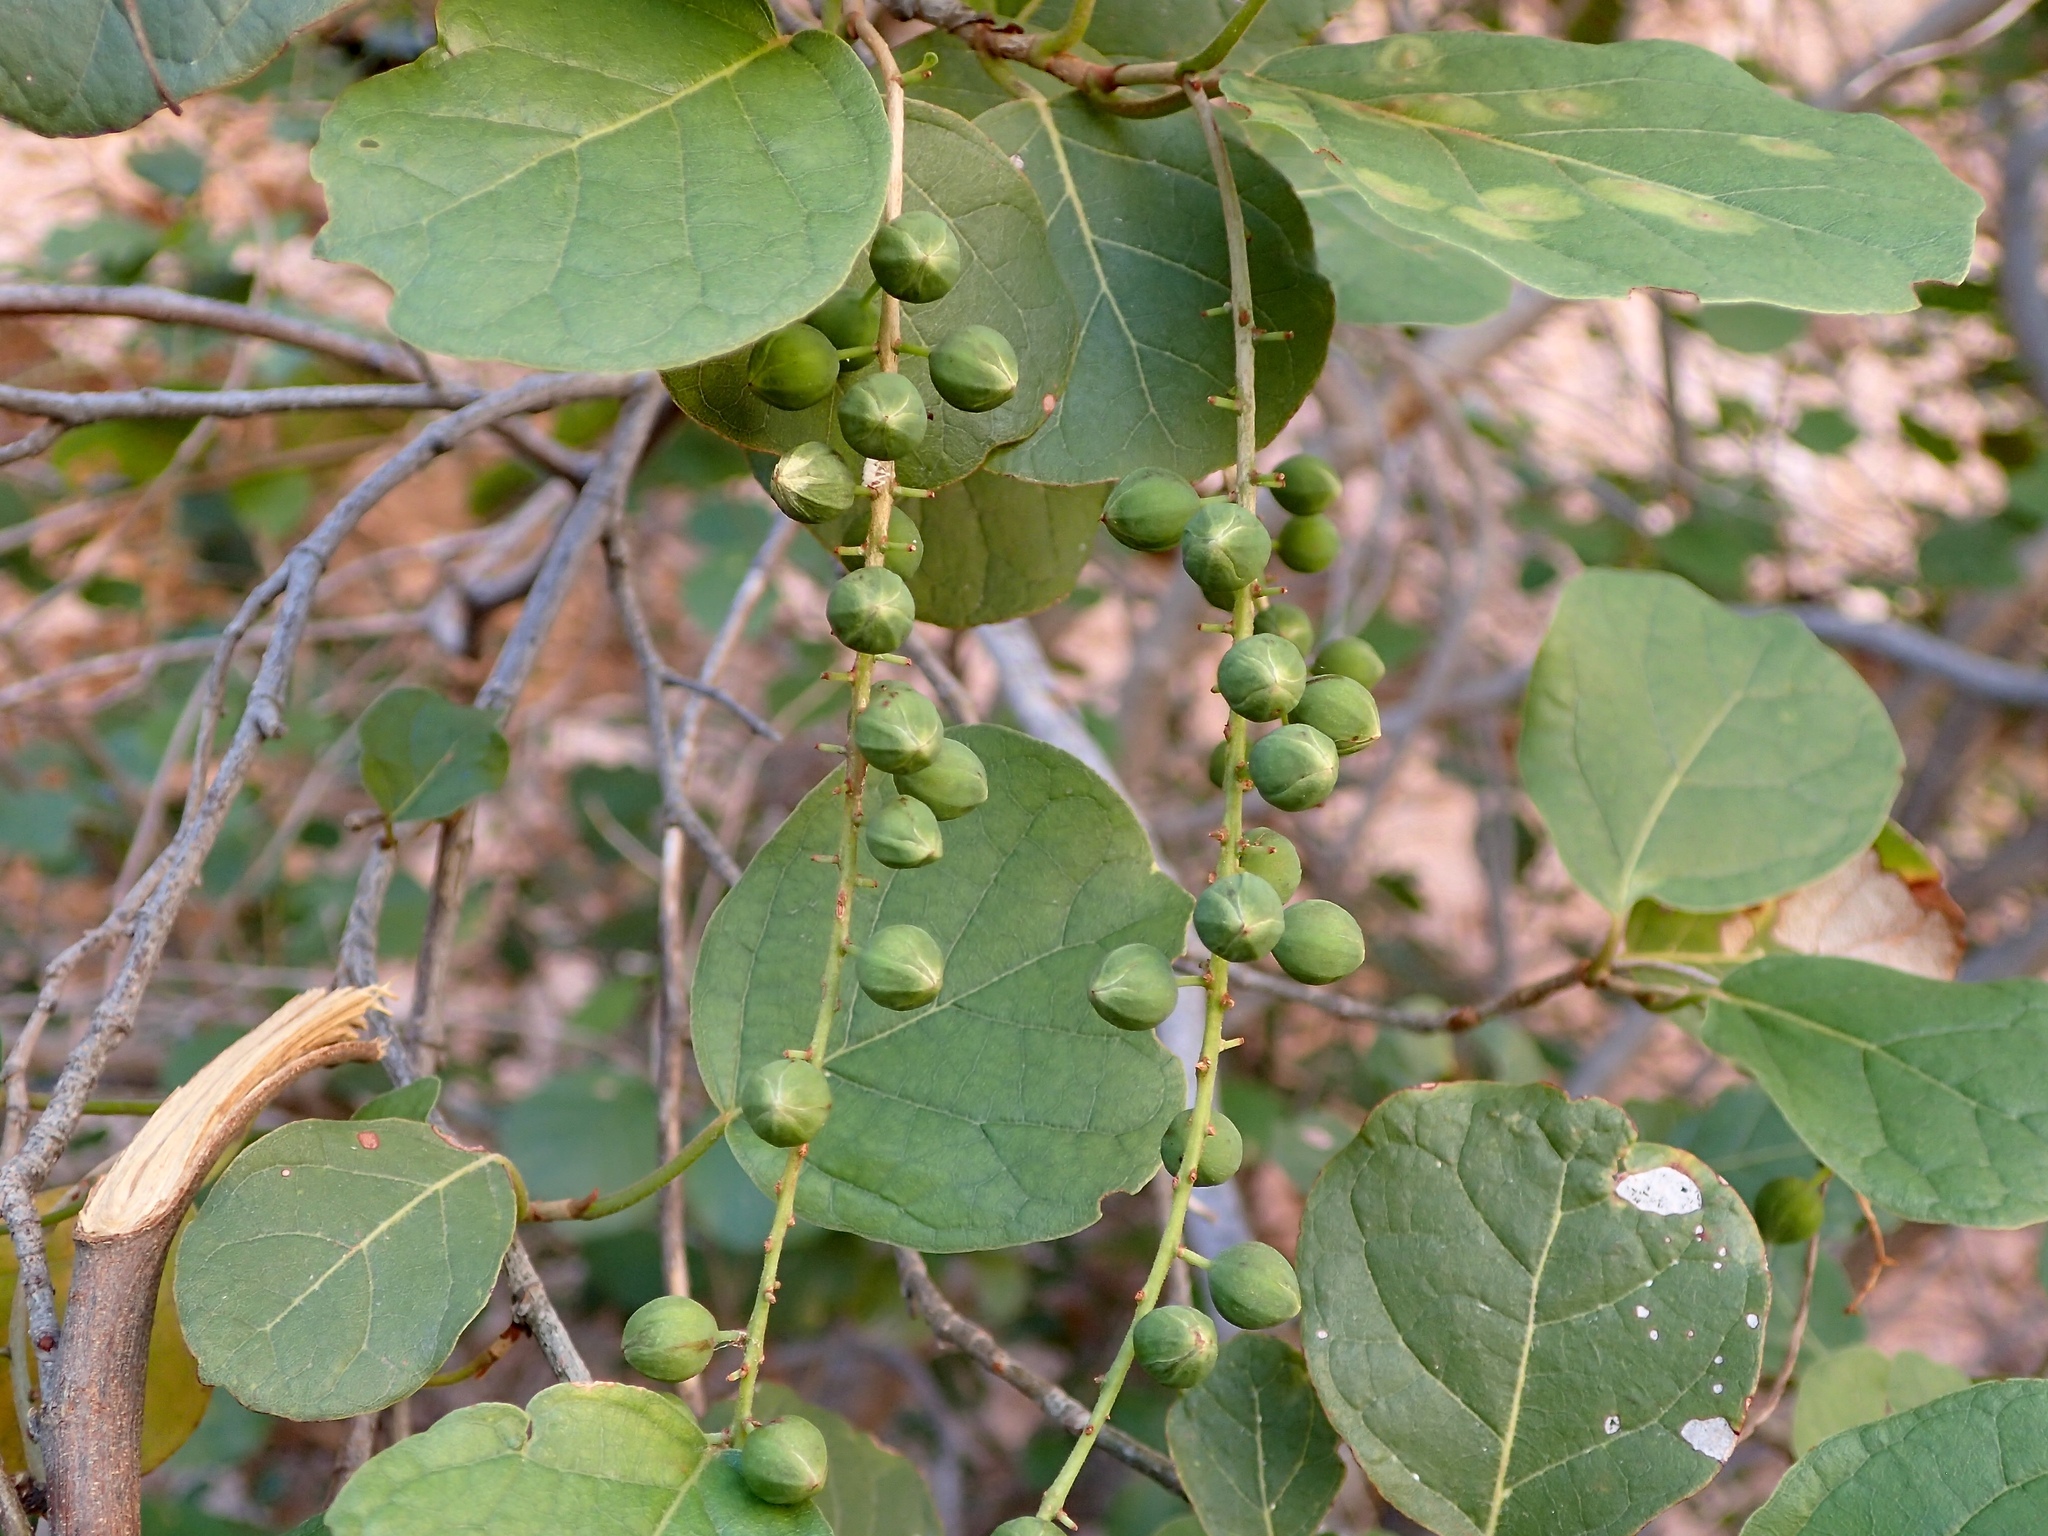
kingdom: Plantae
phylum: Tracheophyta
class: Magnoliopsida
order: Caryophyllales
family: Polygonaceae
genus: Coccoloba
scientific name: Coccoloba goldmanii
